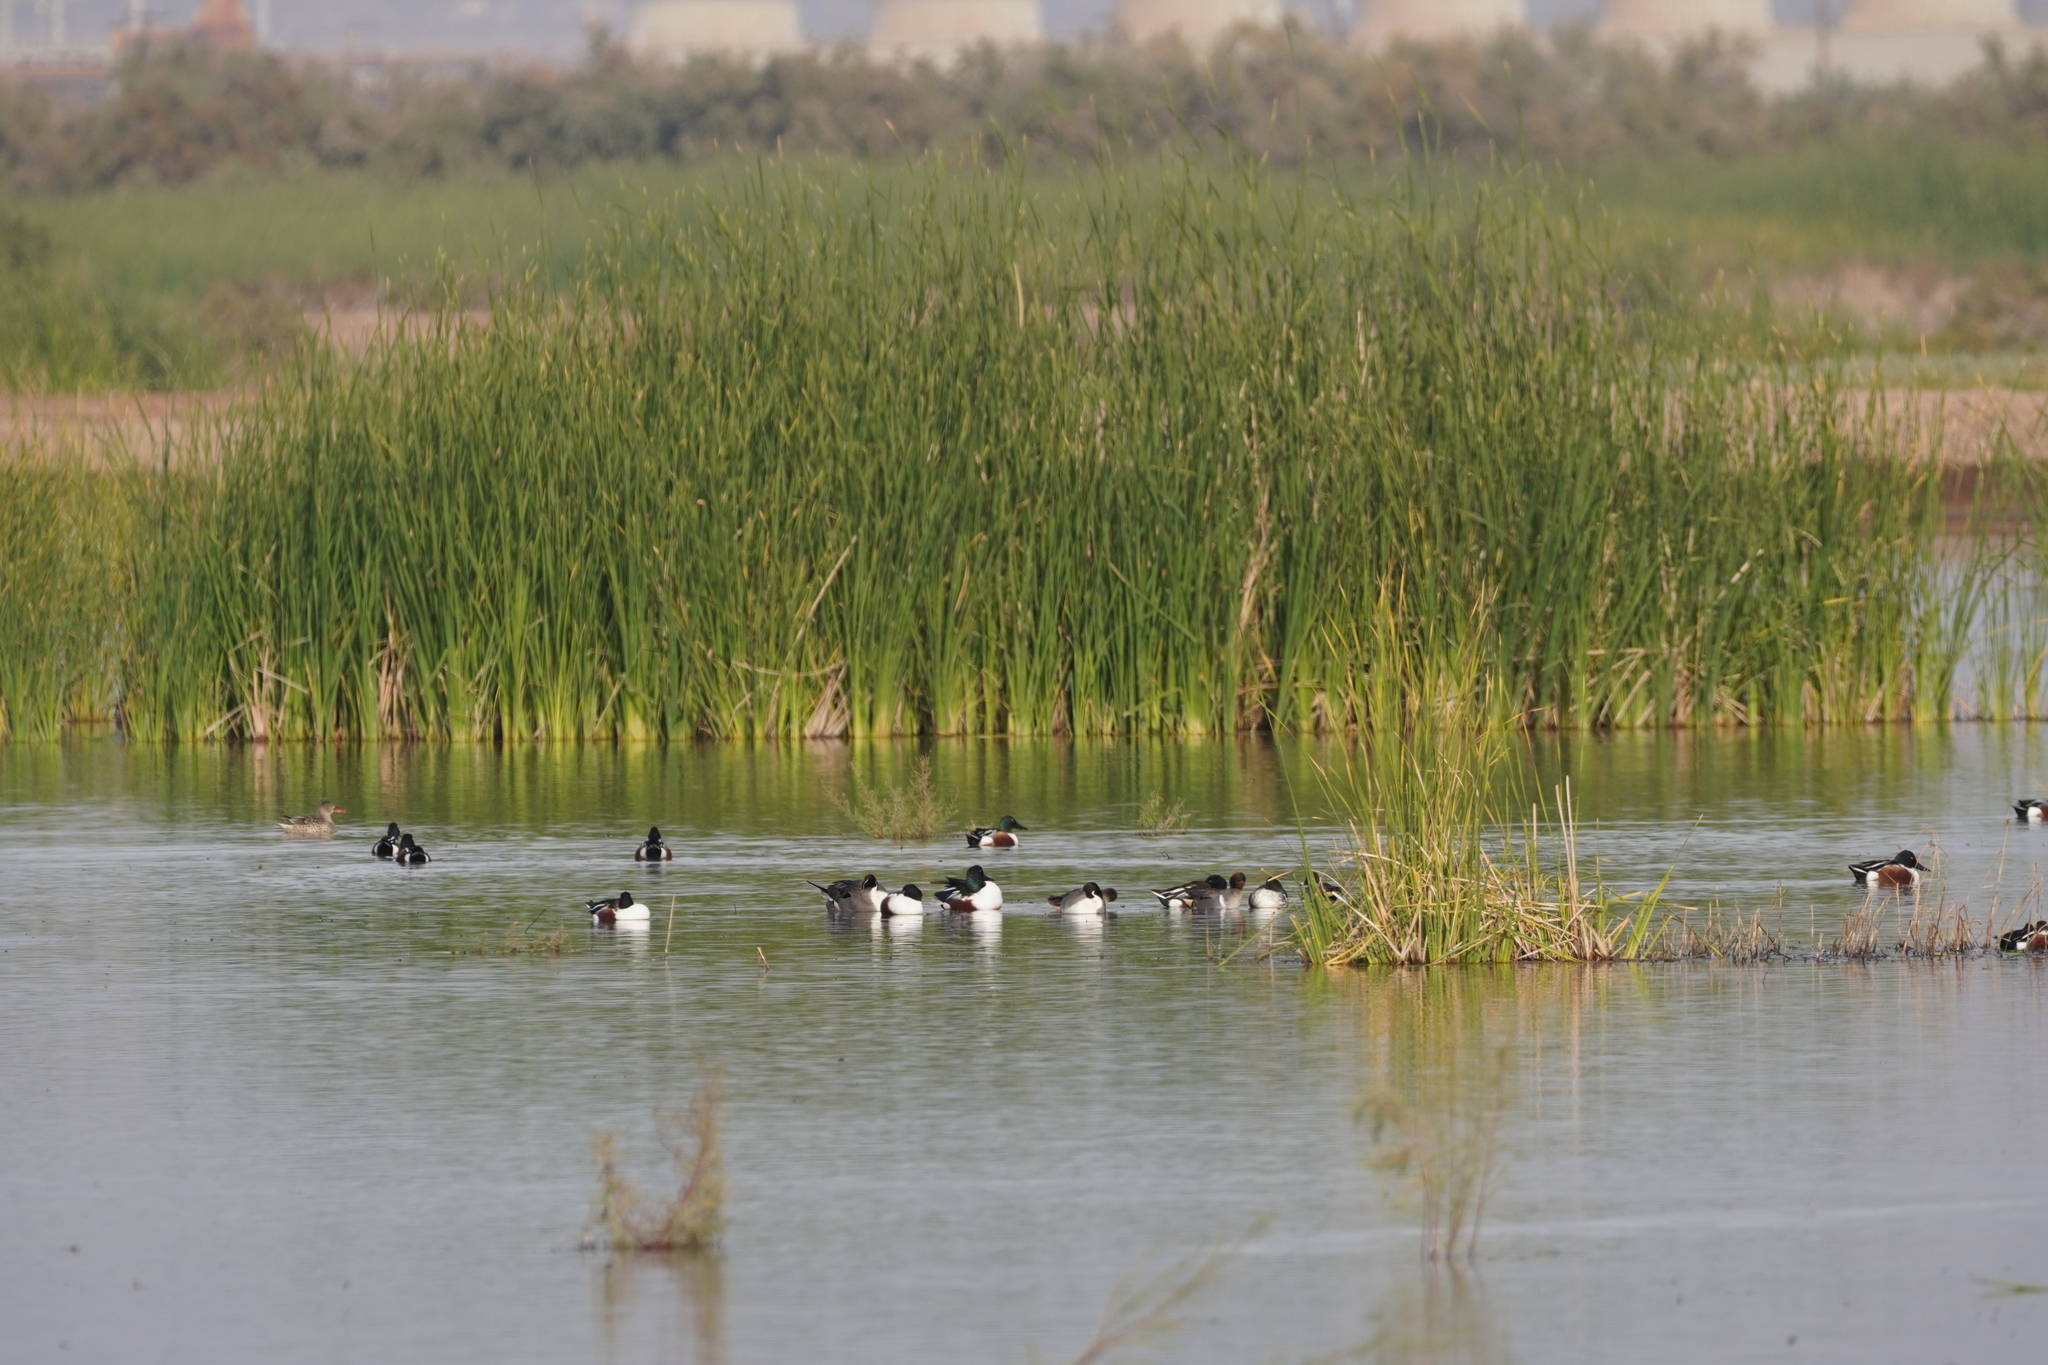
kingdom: Animalia
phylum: Chordata
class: Aves
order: Anseriformes
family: Anatidae
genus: Spatula
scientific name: Spatula clypeata
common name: Northern shoveler
